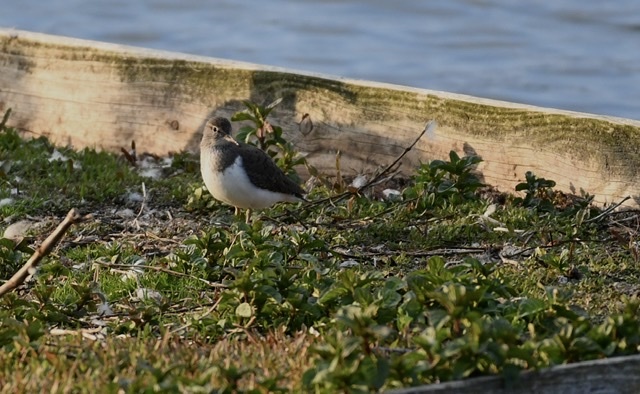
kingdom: Animalia
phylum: Chordata
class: Aves
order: Charadriiformes
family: Scolopacidae
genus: Actitis
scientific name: Actitis hypoleucos
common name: Common sandpiper
